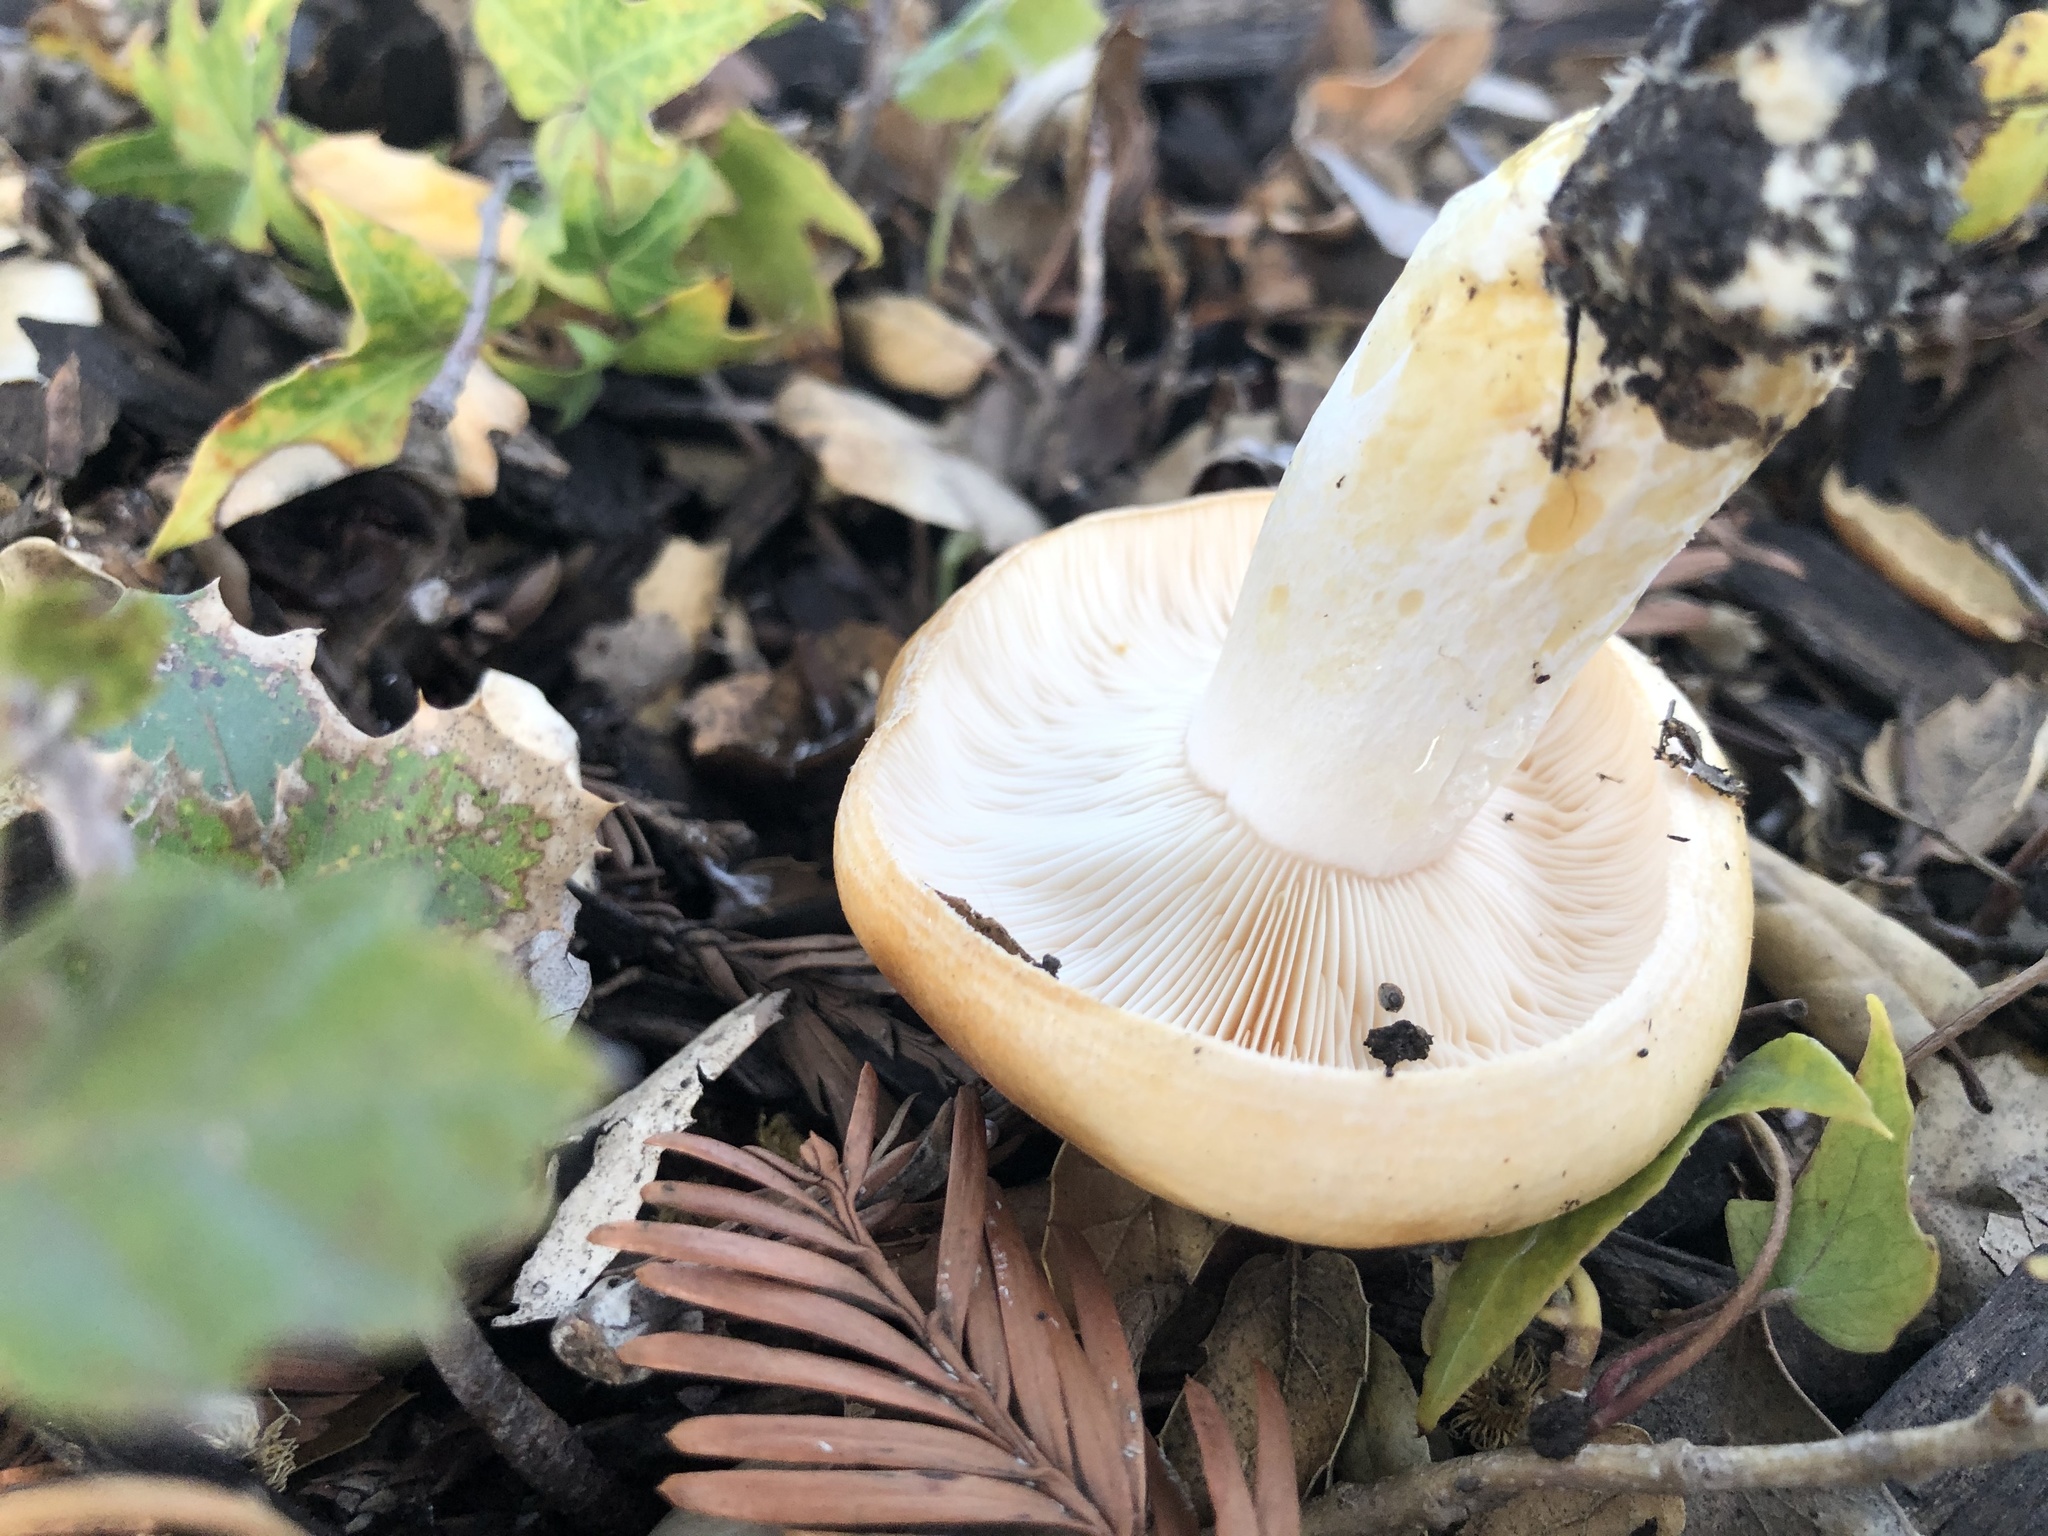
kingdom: Fungi
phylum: Basidiomycota
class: Agaricomycetes
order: Russulales
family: Russulaceae
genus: Lactarius
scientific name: Lactarius alnicola
